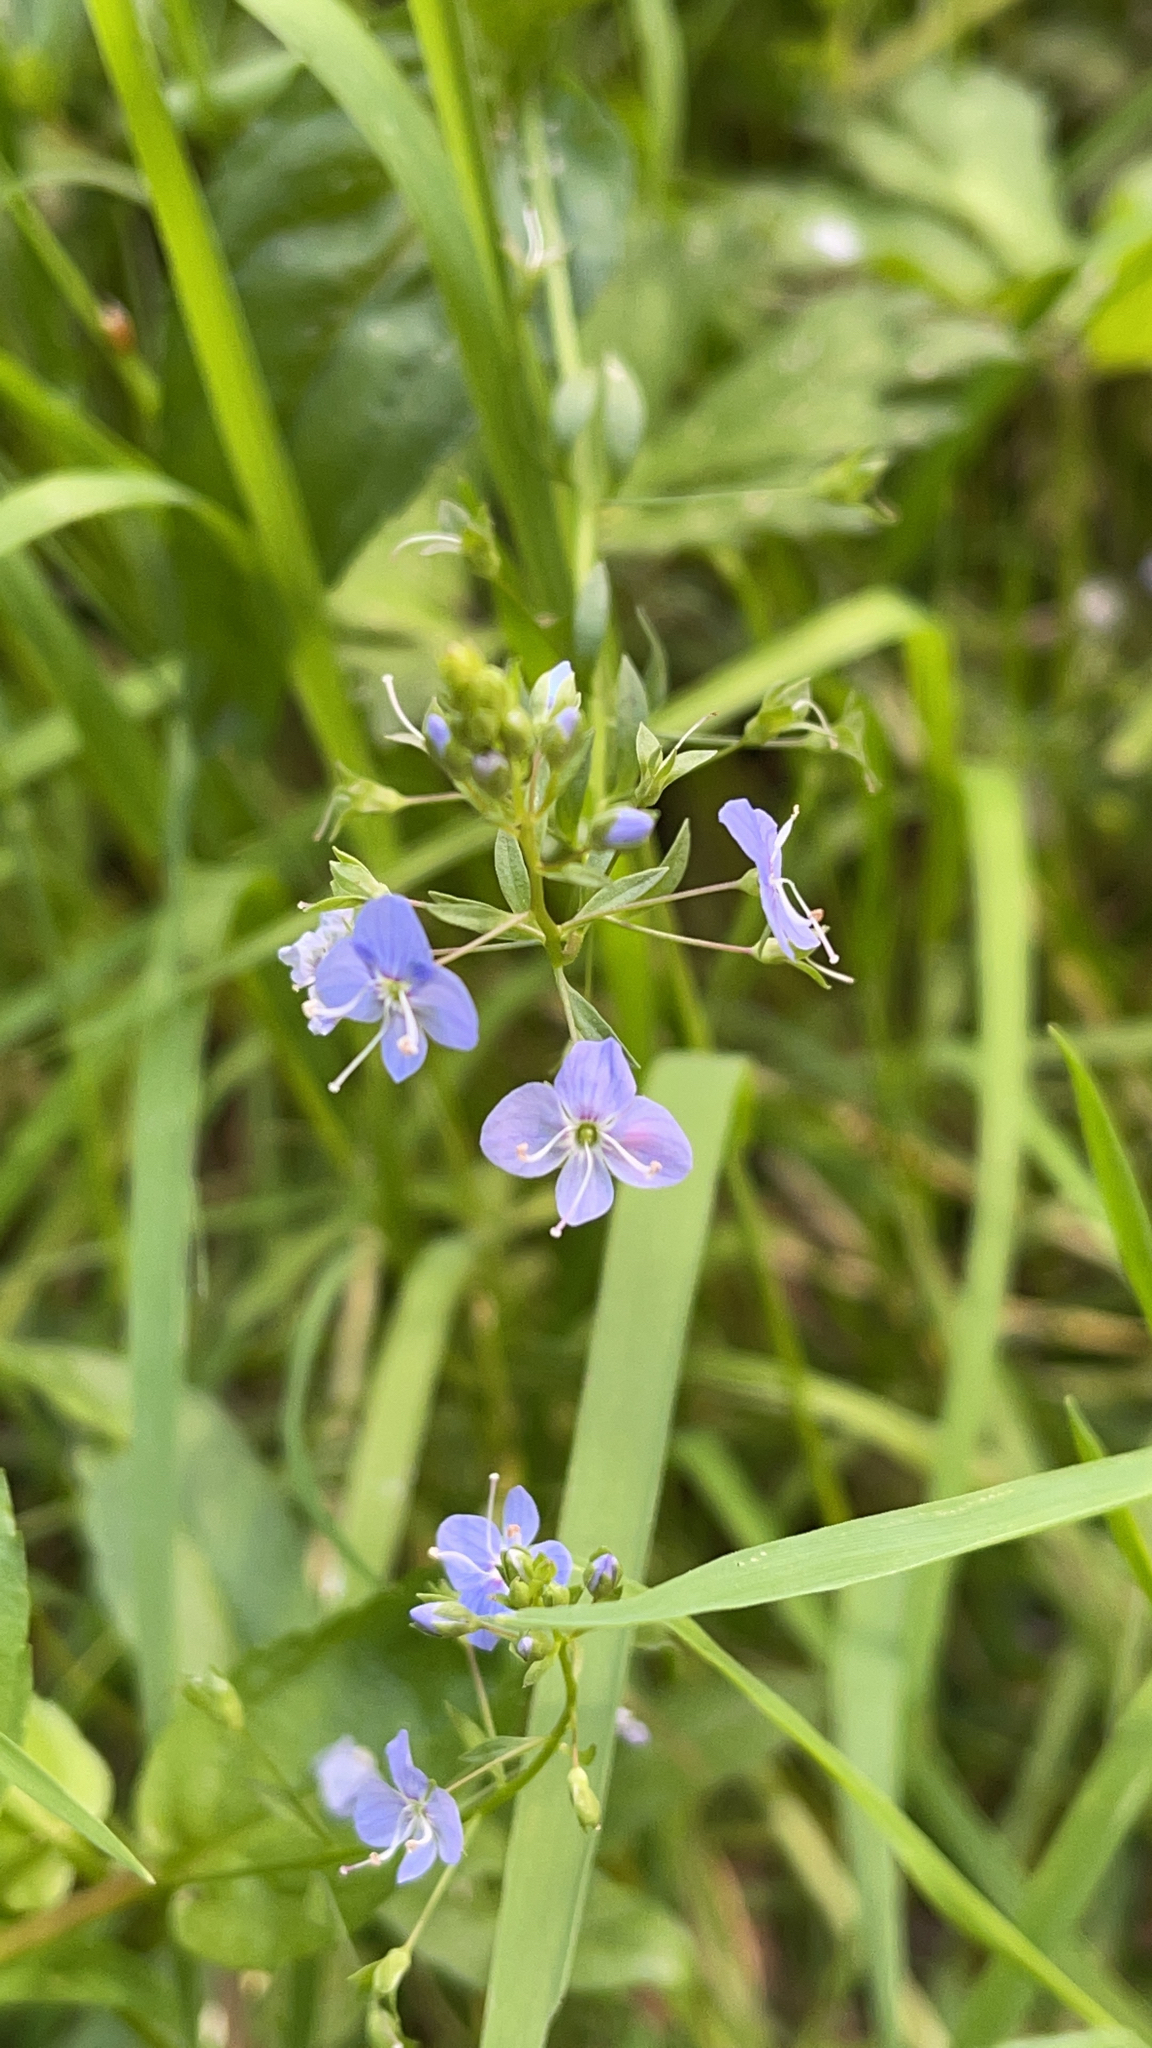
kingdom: Plantae
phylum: Tracheophyta
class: Magnoliopsida
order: Lamiales
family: Plantaginaceae
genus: Veronica
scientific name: Veronica americana
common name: American brooklime
